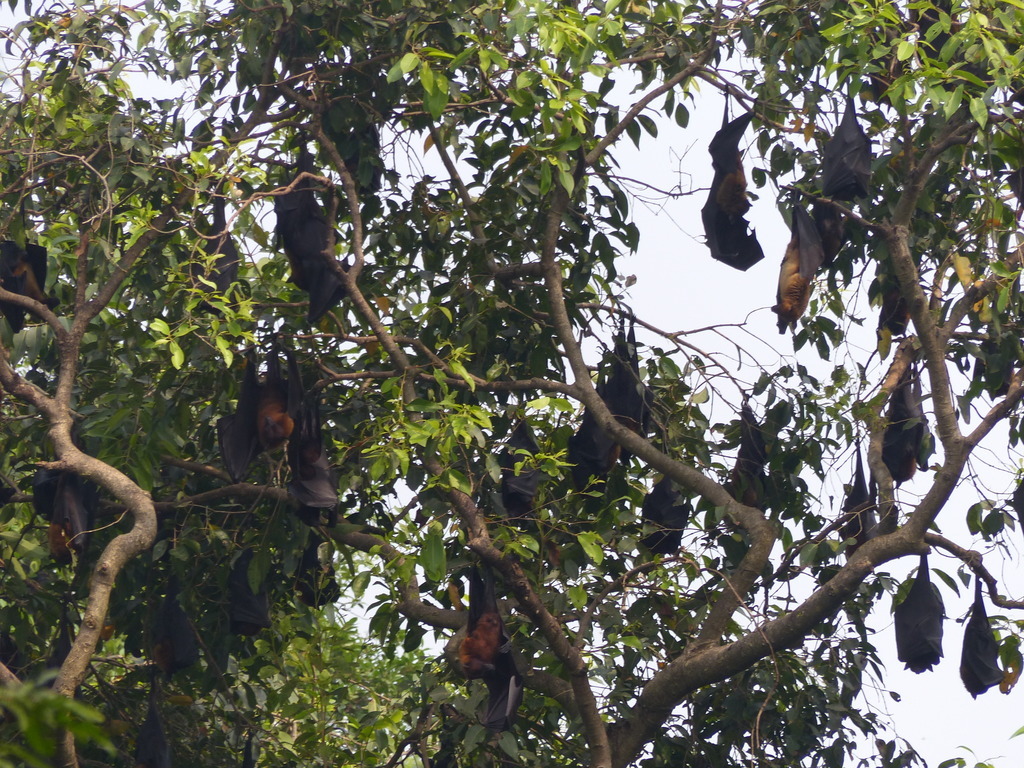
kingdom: Animalia
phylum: Chordata
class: Mammalia
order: Chiroptera
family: Pteropodidae
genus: Pteropus
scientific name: Pteropus vampyrus
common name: Large flying fox
